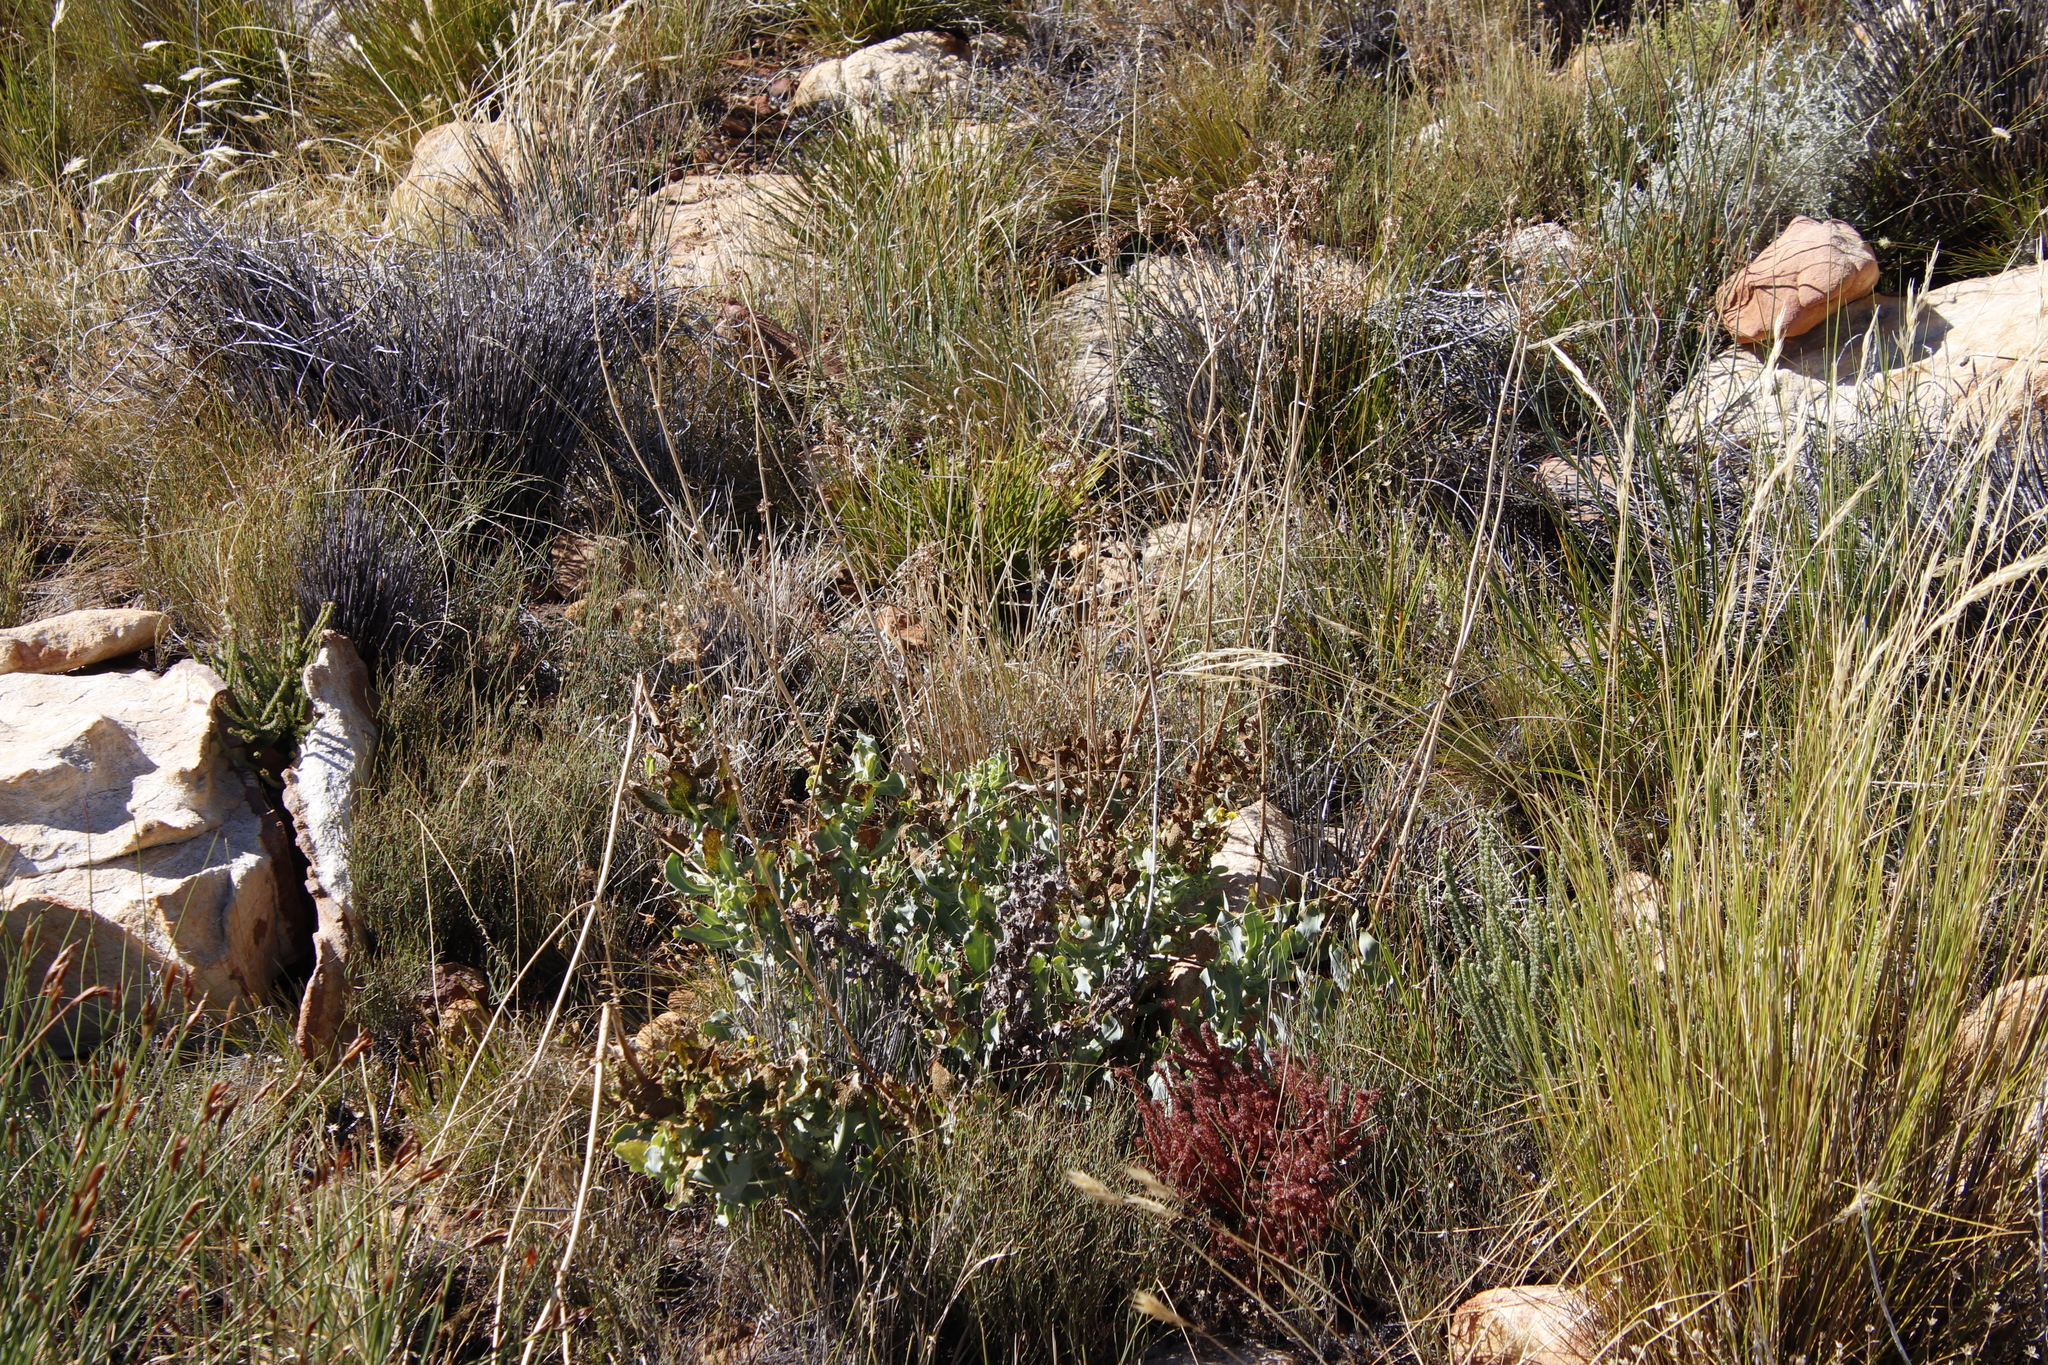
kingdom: Plantae
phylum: Tracheophyta
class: Magnoliopsida
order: Asterales
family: Asteraceae
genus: Othonna
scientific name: Othonna parviflora
